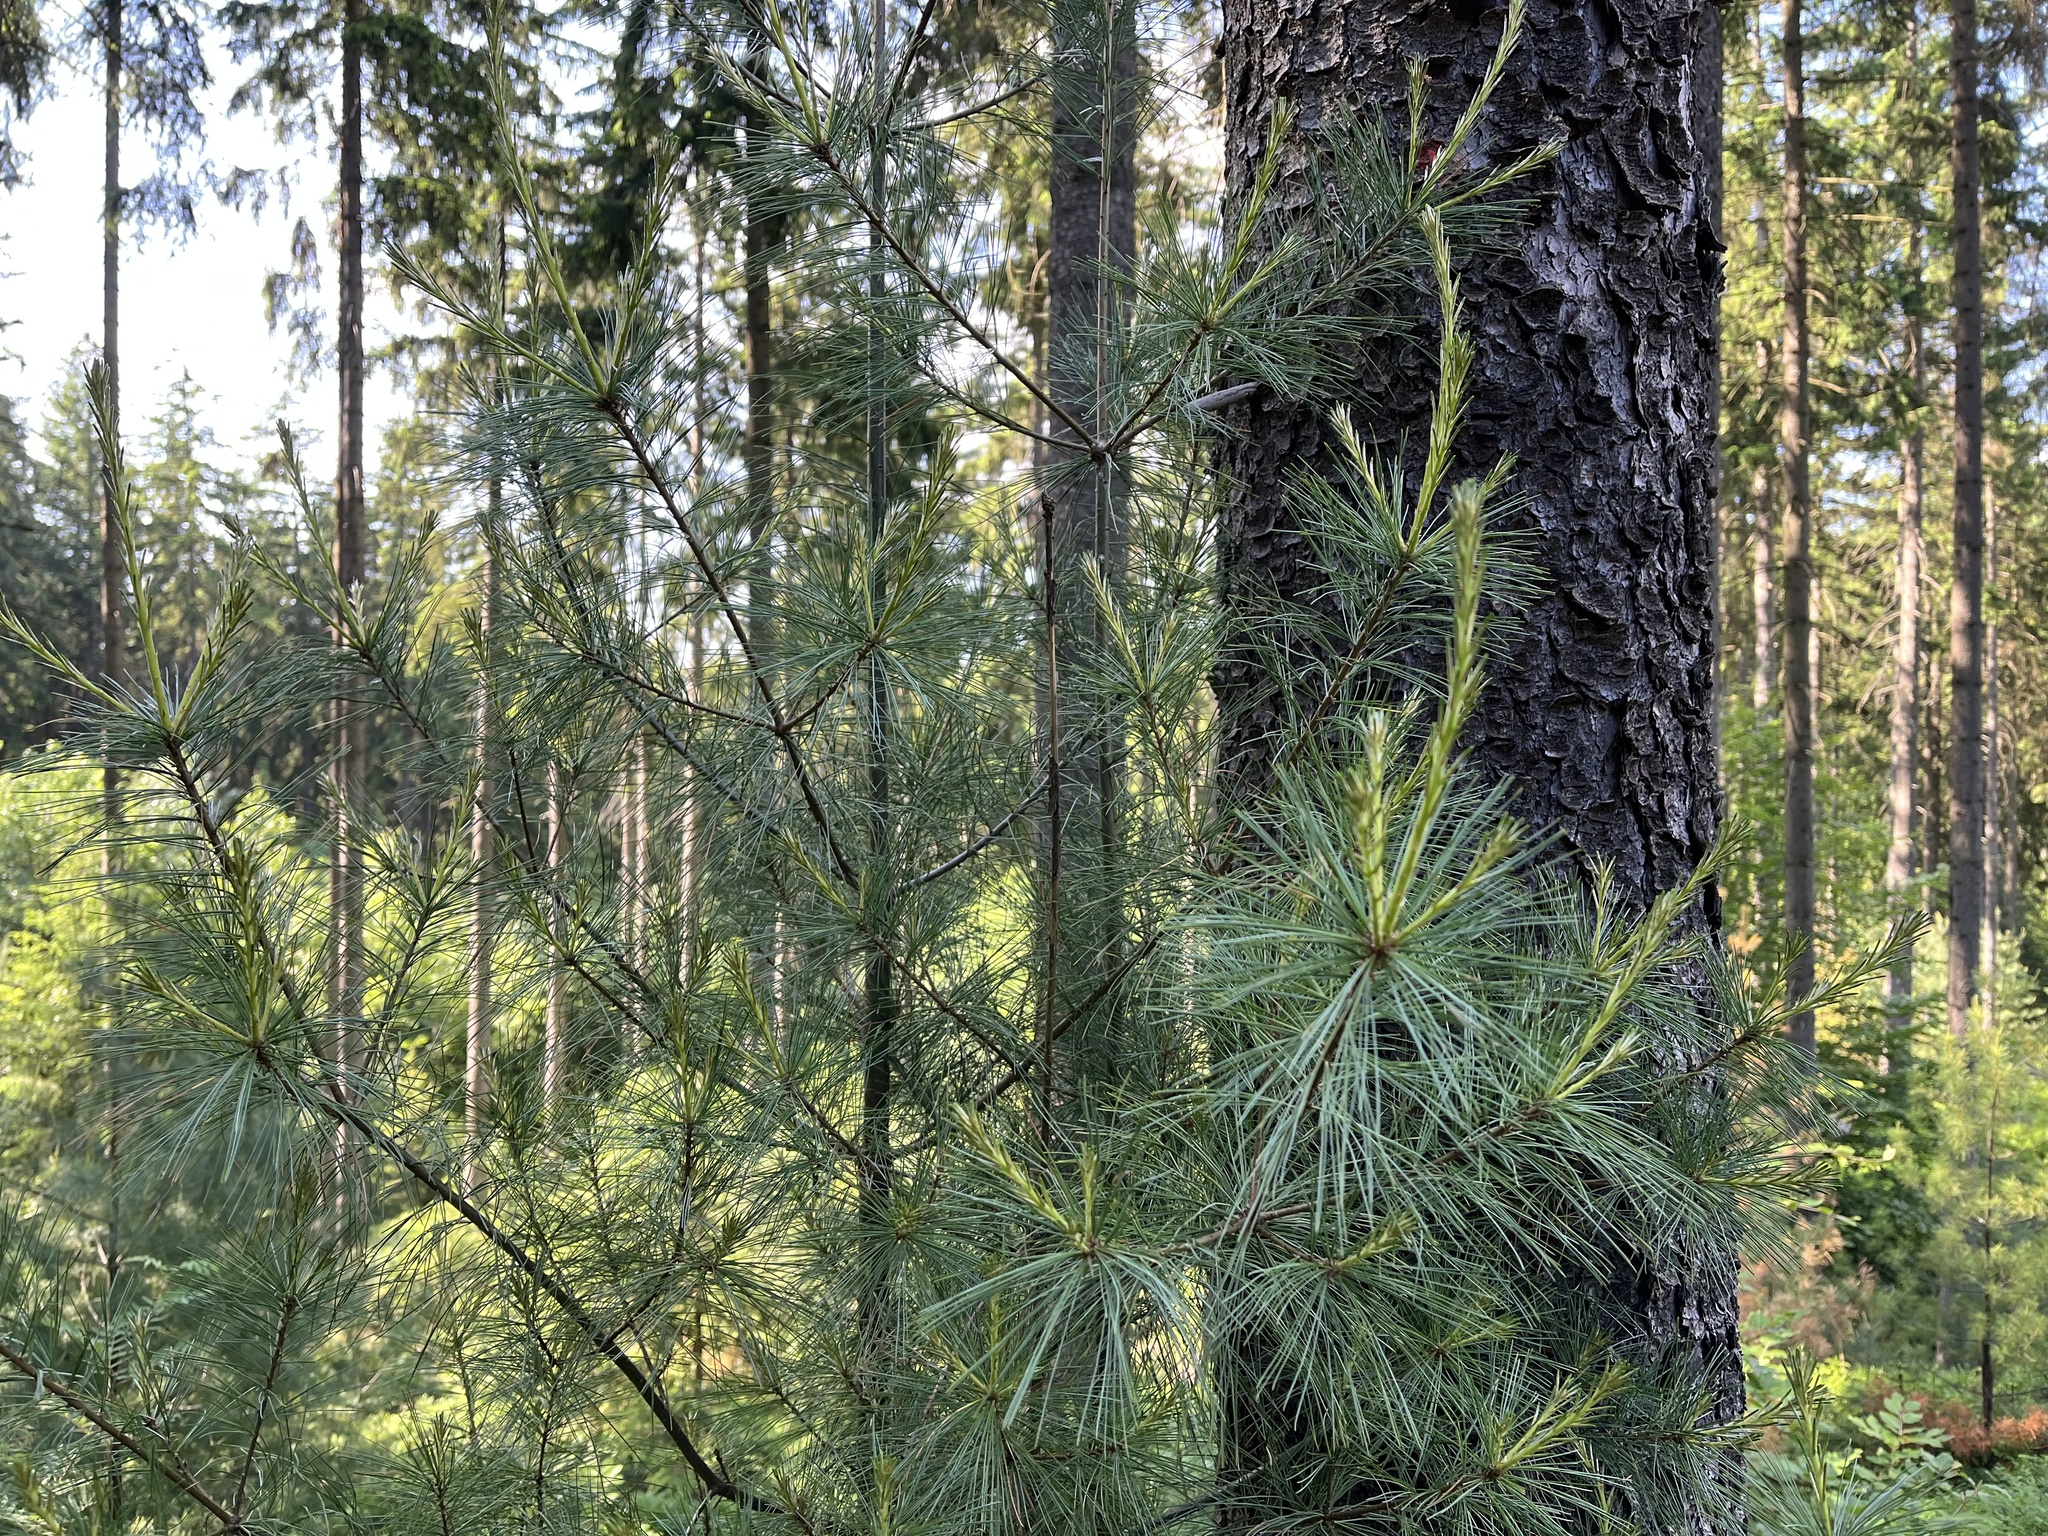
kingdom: Plantae
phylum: Tracheophyta
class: Pinopsida
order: Pinales
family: Pinaceae
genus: Pinus
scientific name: Pinus strobus
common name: Weymouth pine
